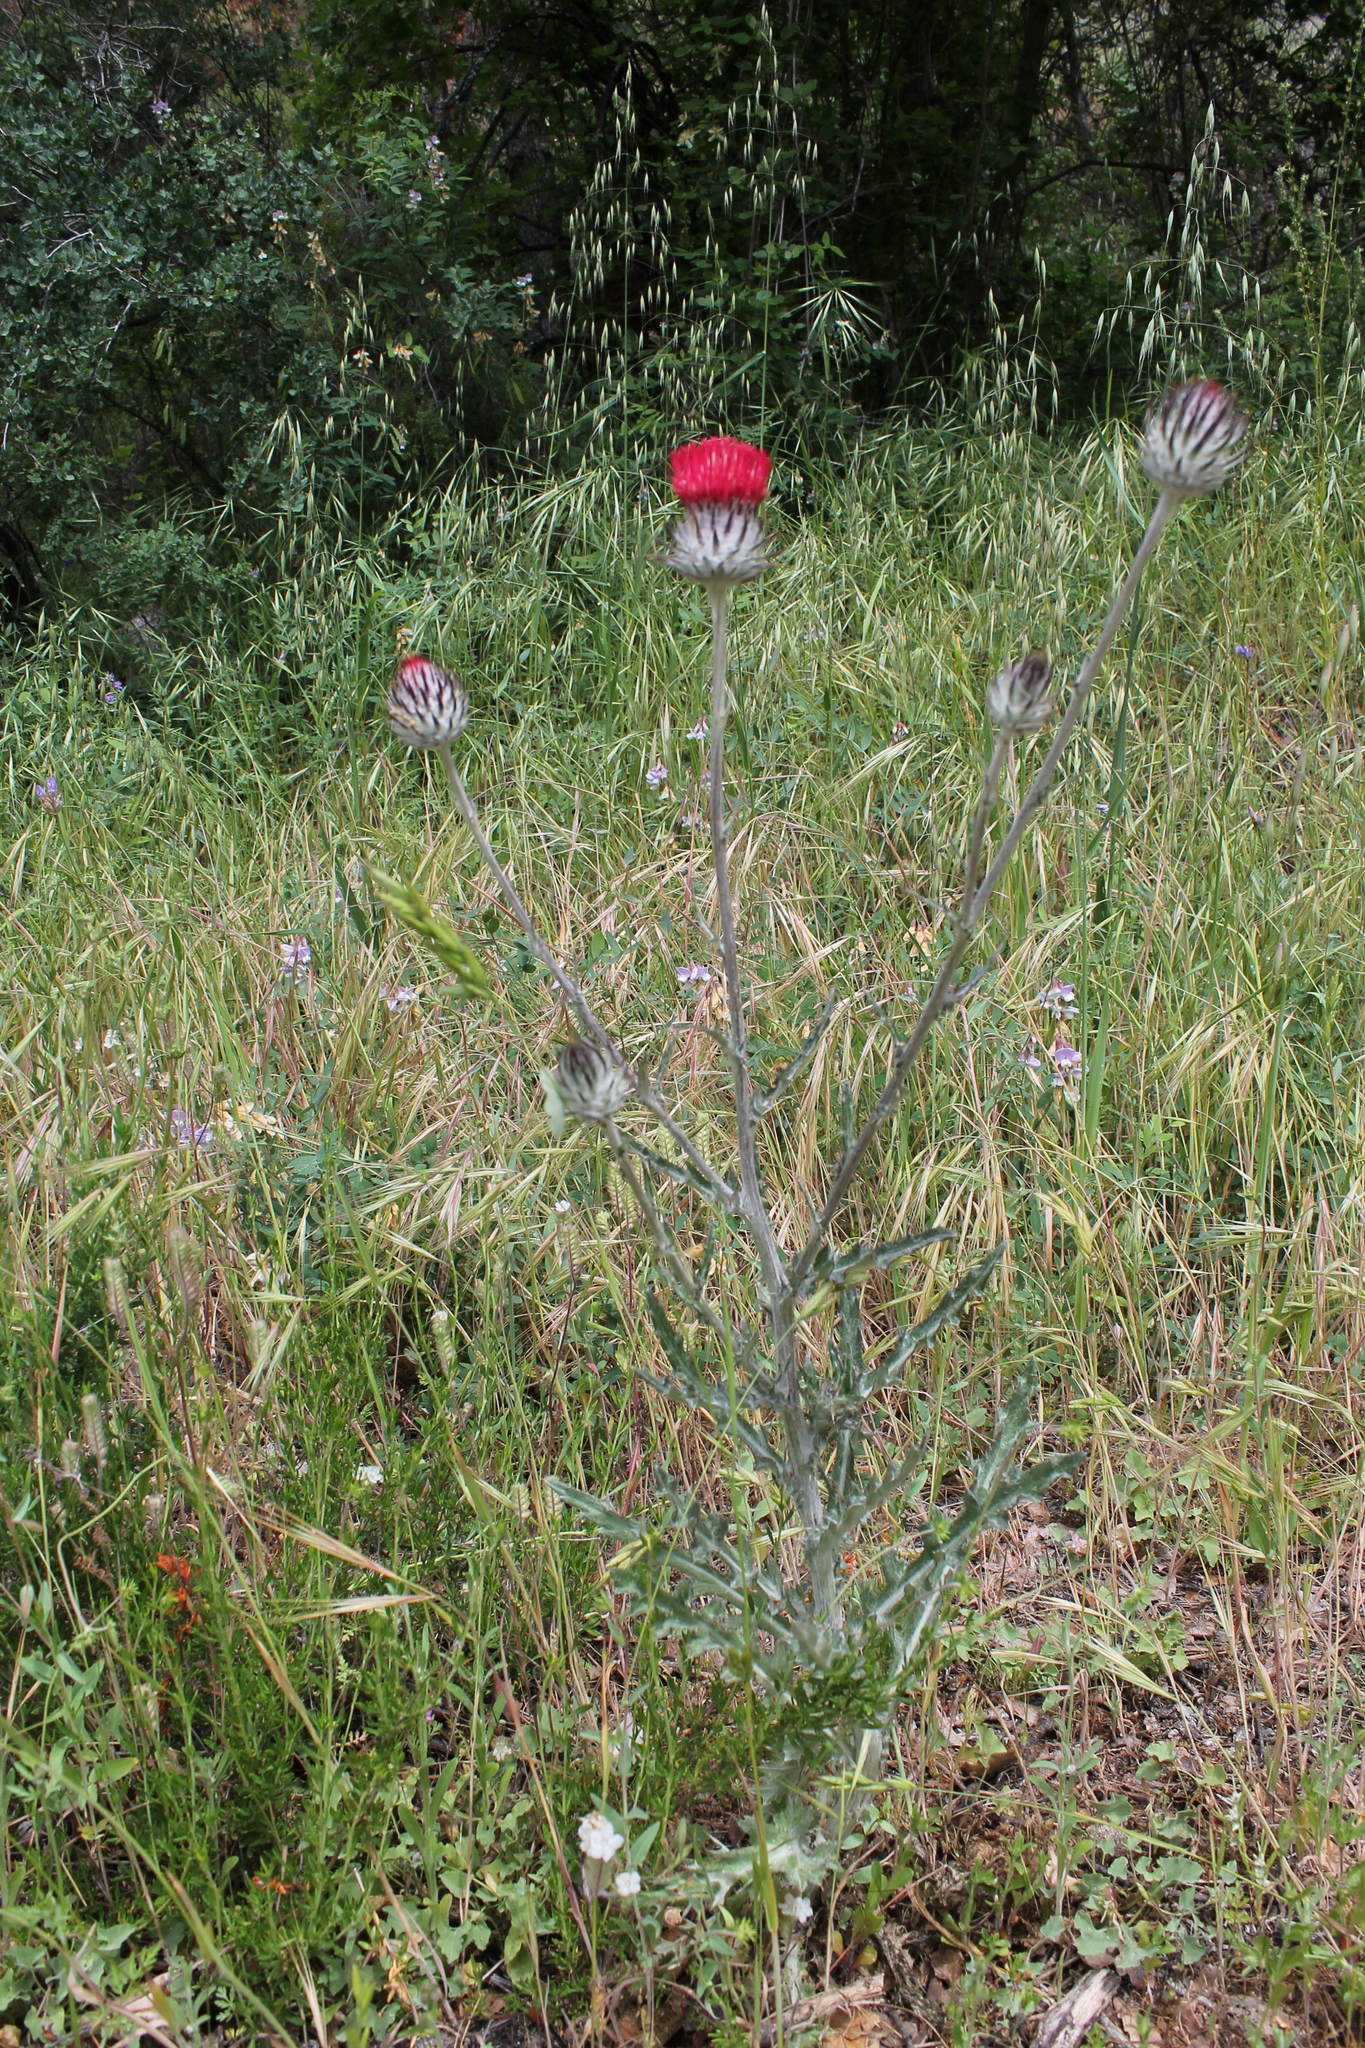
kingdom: Plantae
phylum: Tracheophyta
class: Magnoliopsida
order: Asterales
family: Asteraceae
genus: Cirsium
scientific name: Cirsium occidentale
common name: Western thistle
